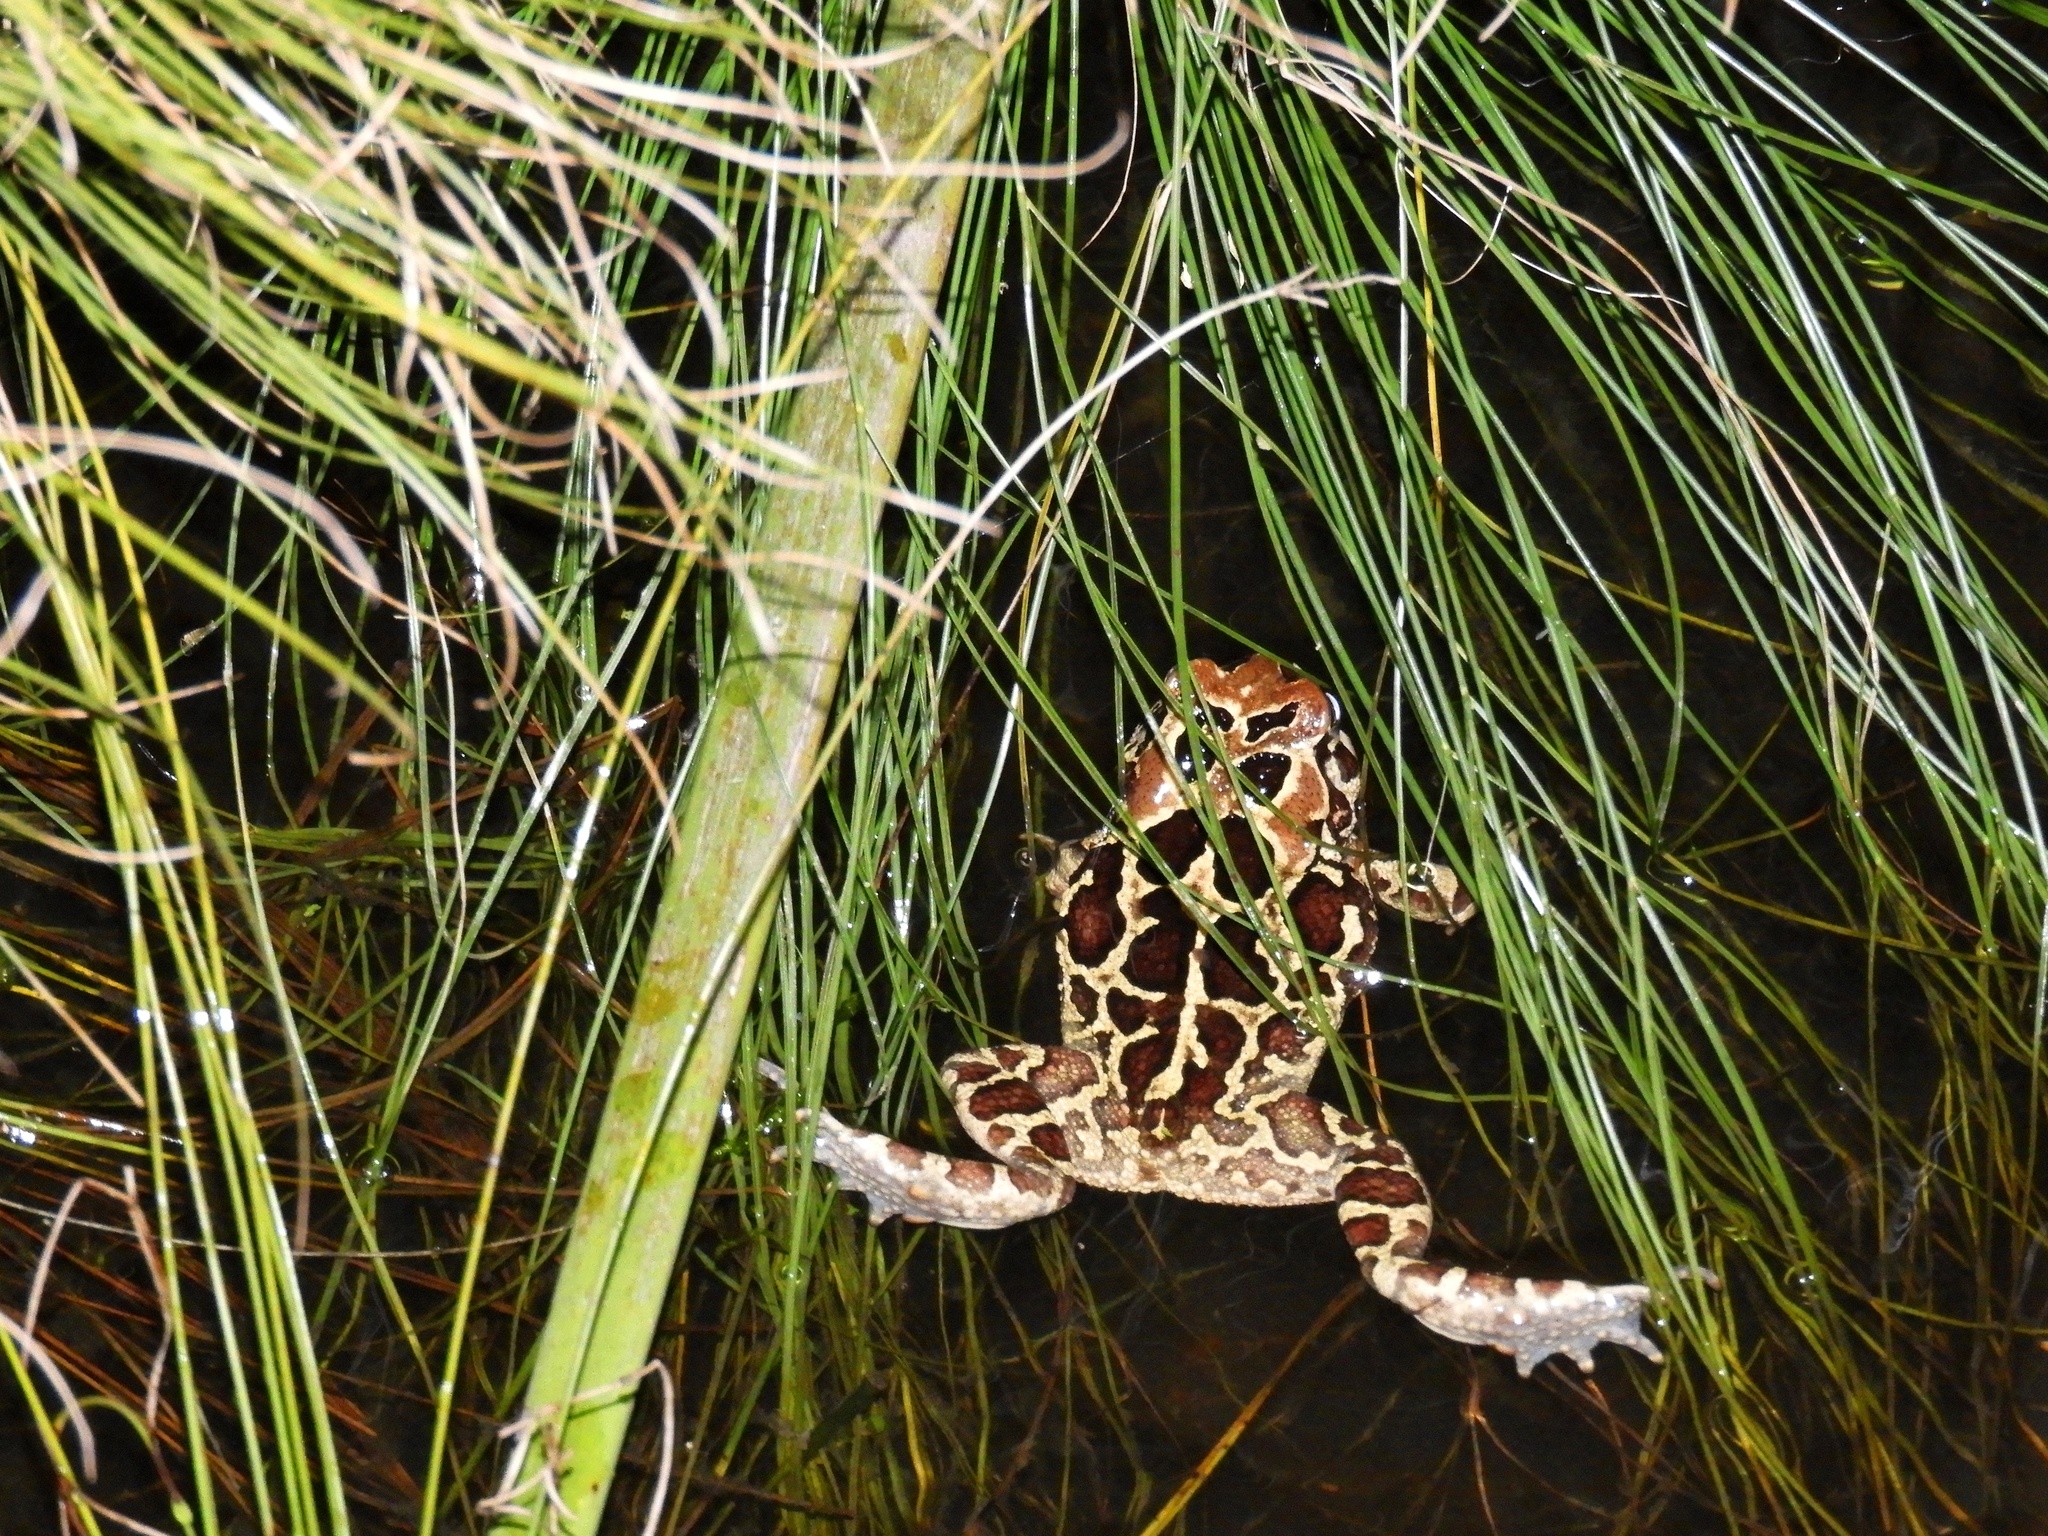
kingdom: Animalia
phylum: Chordata
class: Amphibia
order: Anura
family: Bufonidae
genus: Sclerophrys
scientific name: Sclerophrys pantherina
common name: Panther toad
